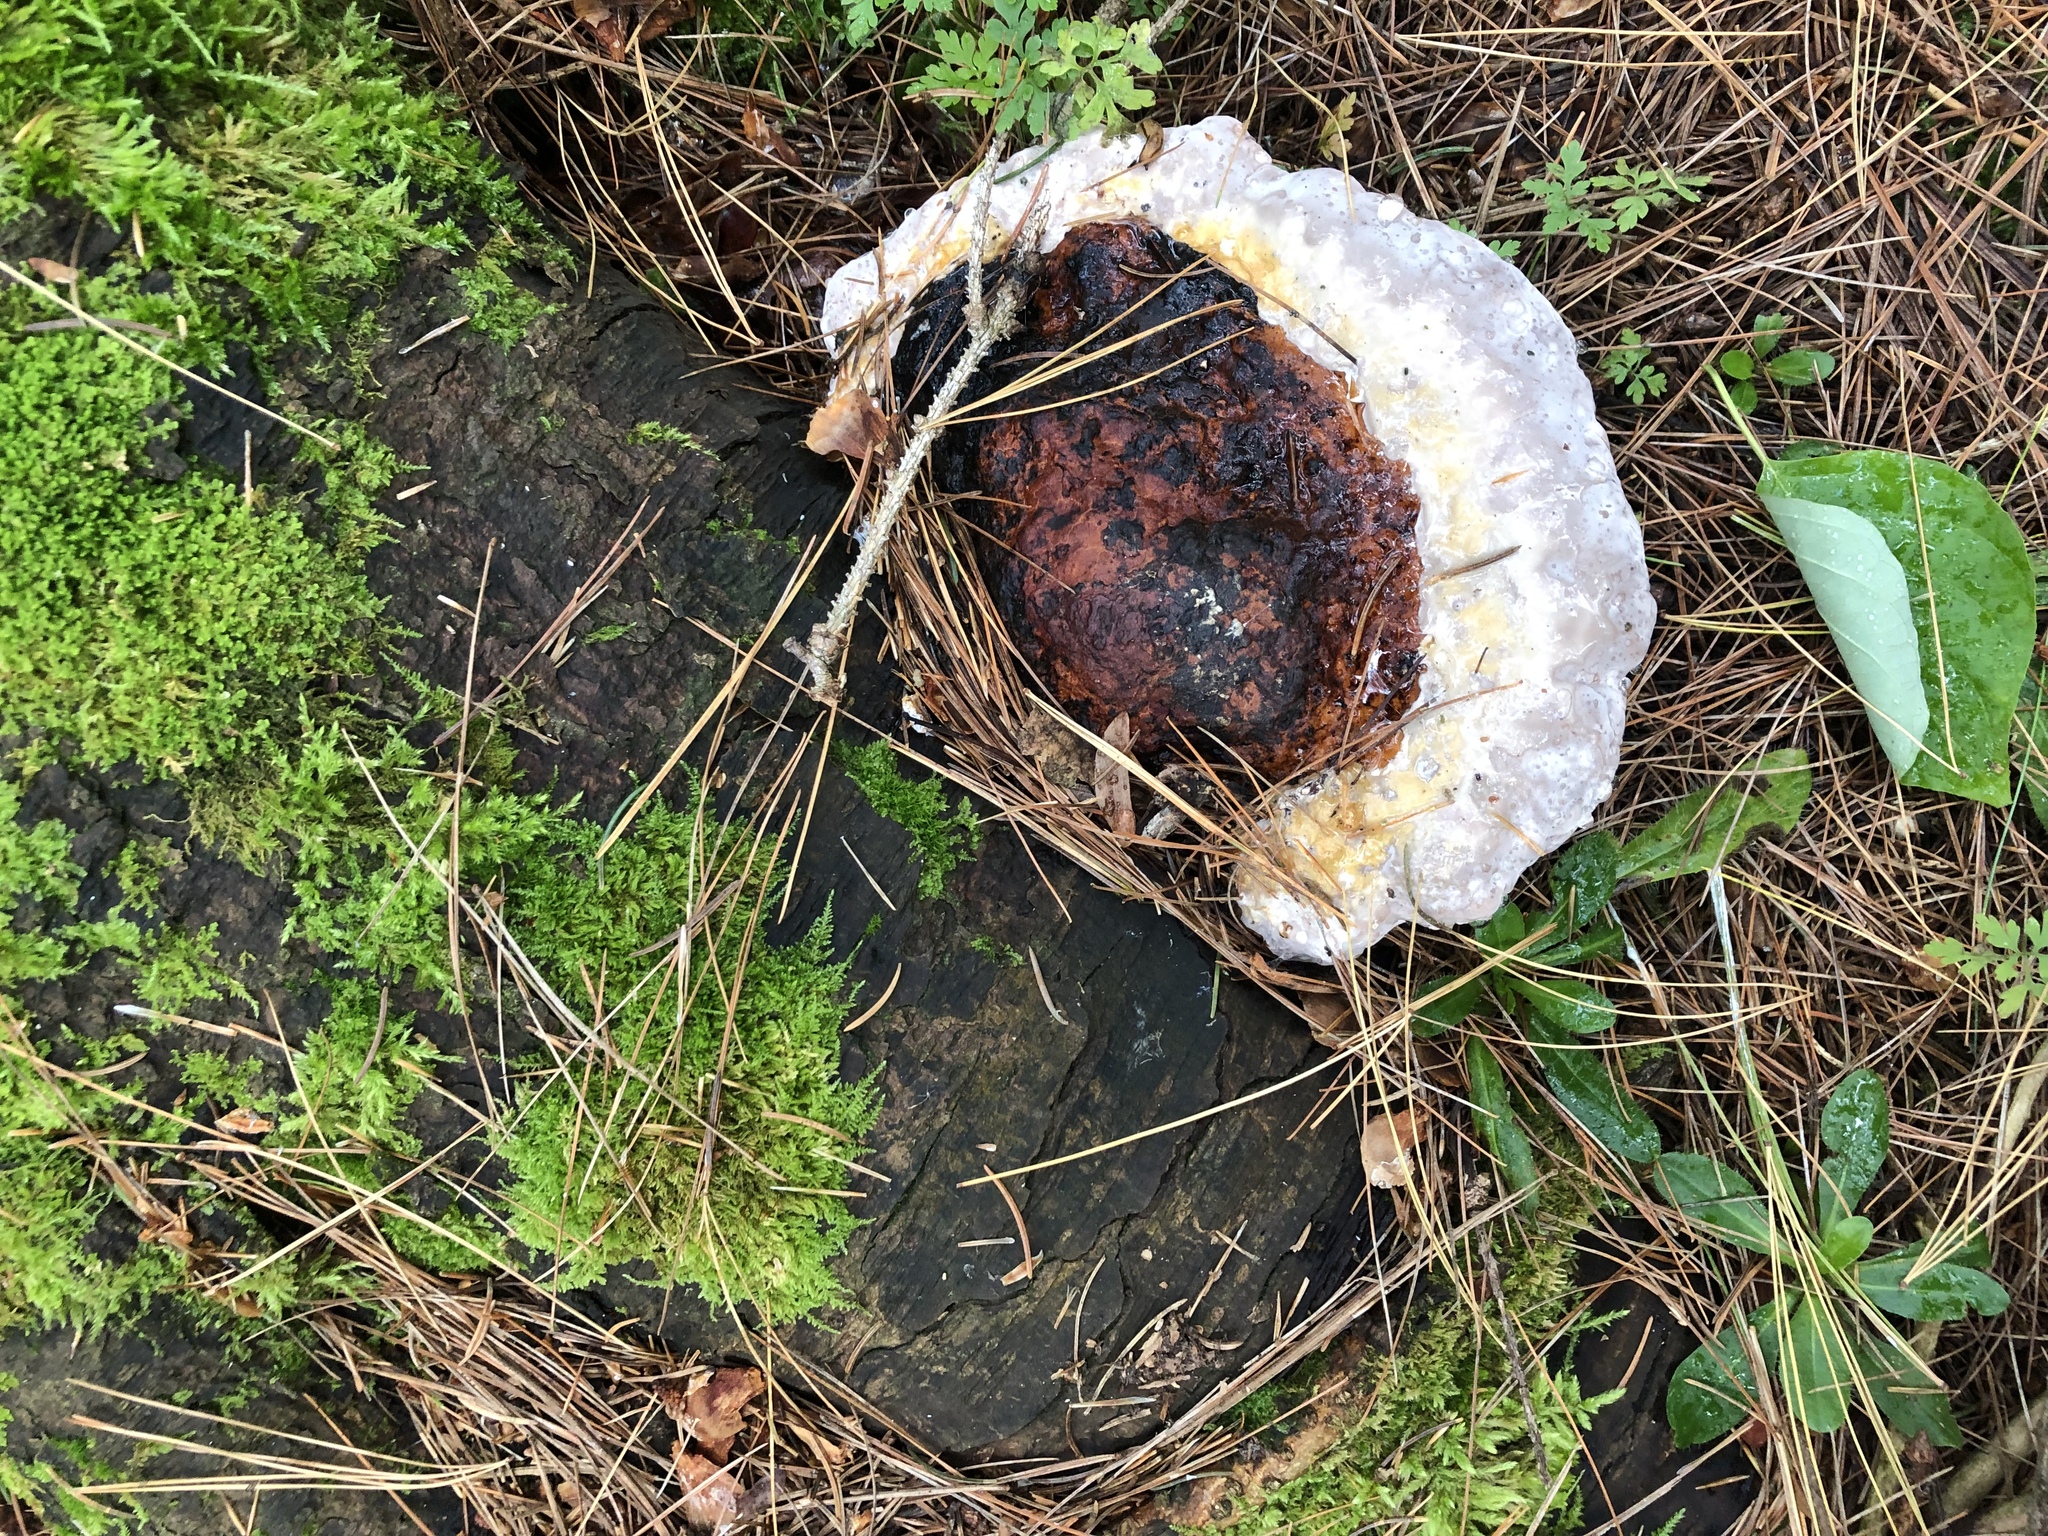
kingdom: Fungi
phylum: Basidiomycota
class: Agaricomycetes
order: Polyporales
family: Fomitopsidaceae
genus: Fomitopsis
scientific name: Fomitopsis mounceae
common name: Northern red belt
